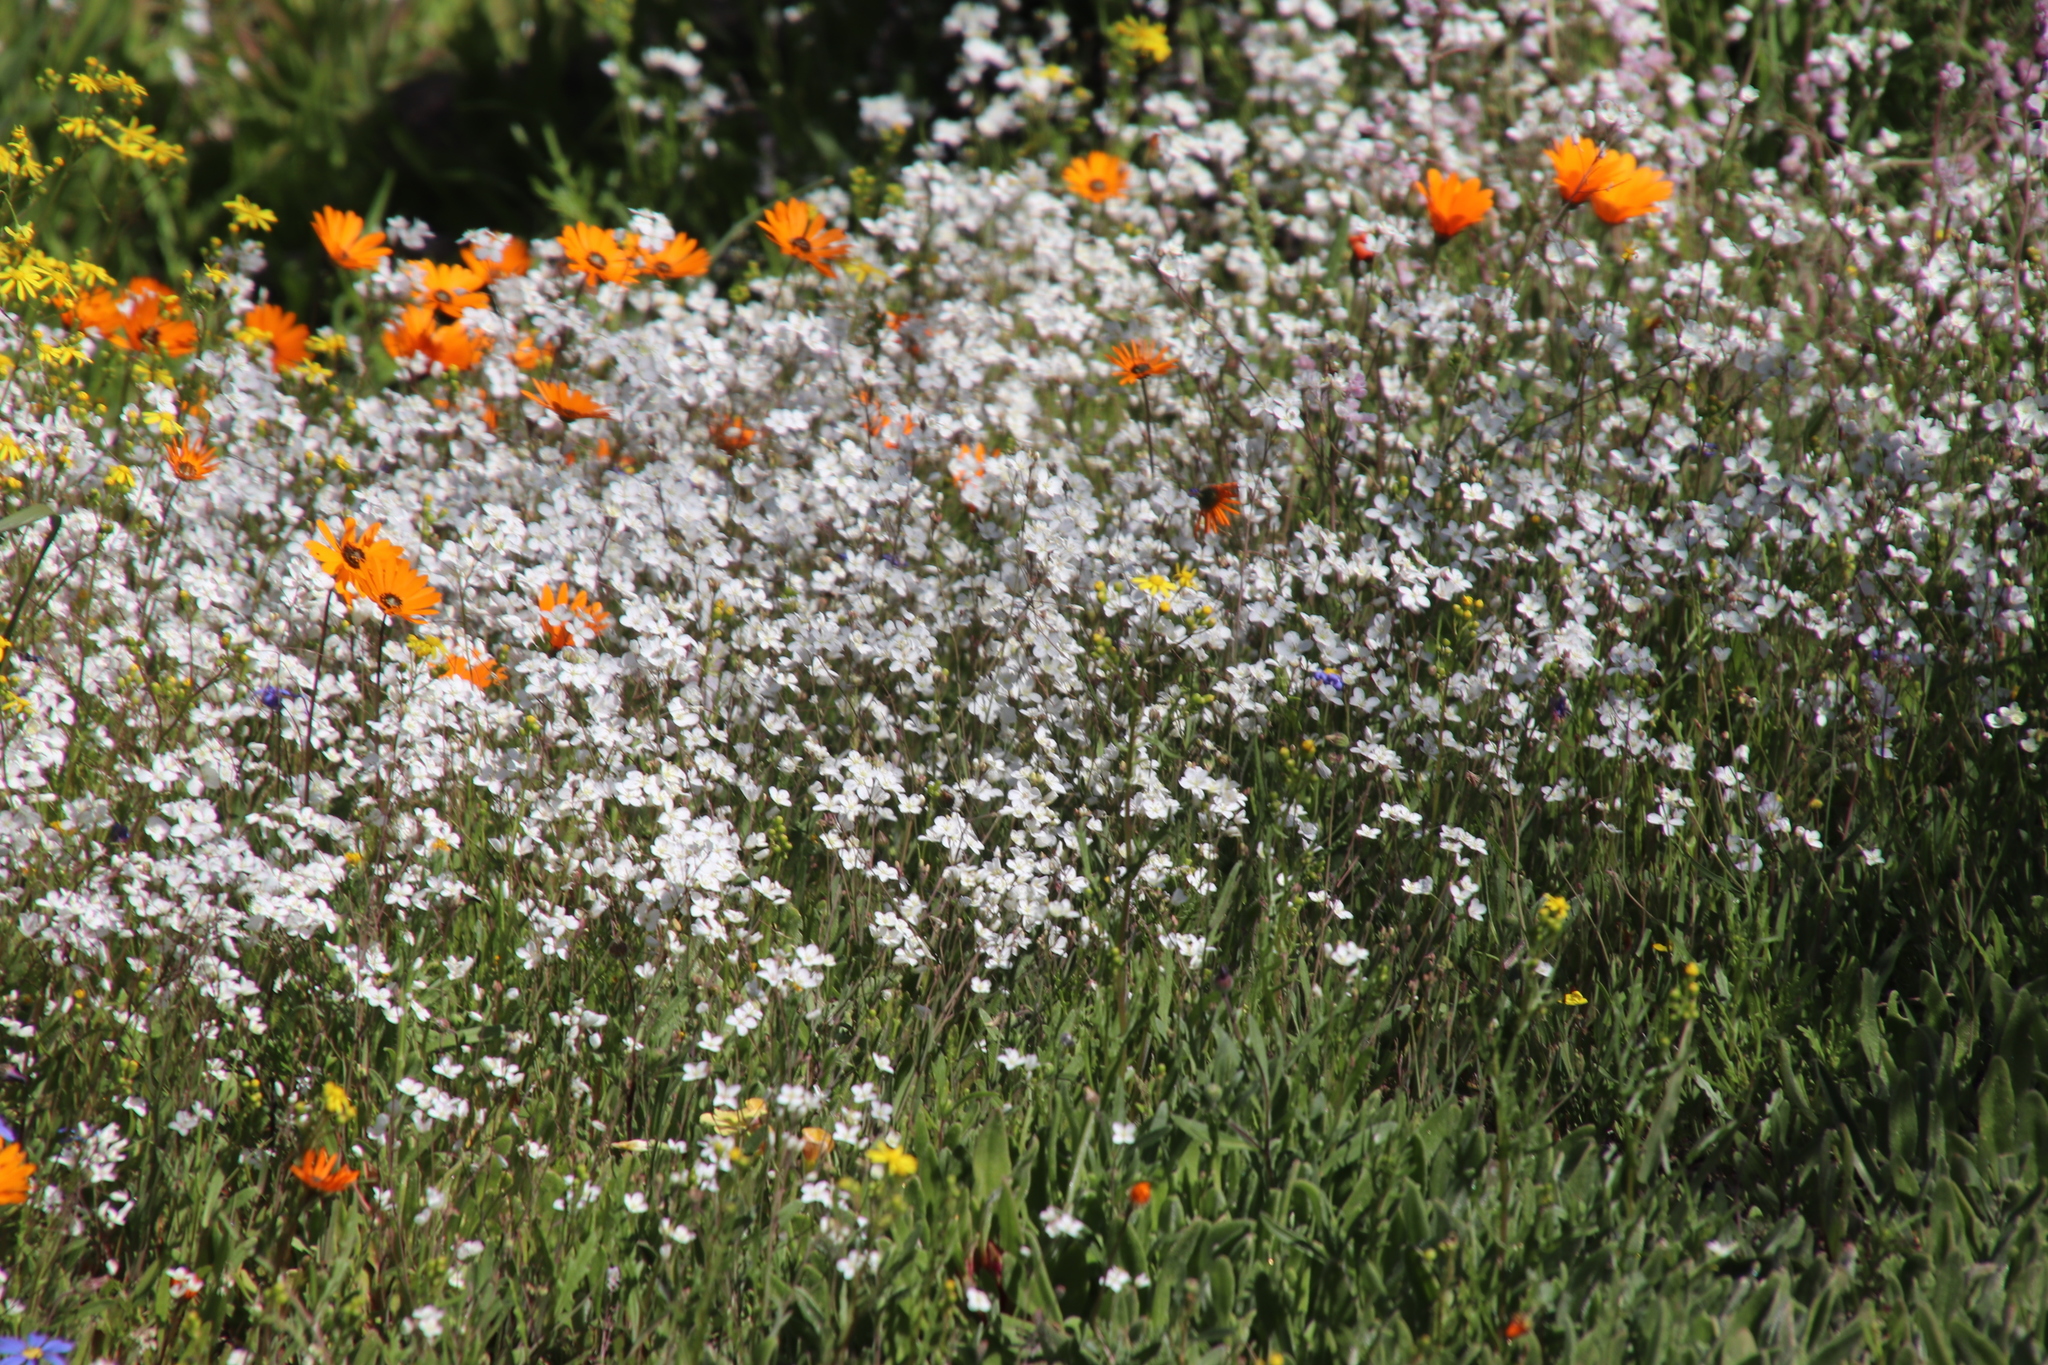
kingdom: Plantae
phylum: Tracheophyta
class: Magnoliopsida
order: Brassicales
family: Brassicaceae
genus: Heliophila
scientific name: Heliophila amplexicaulis
